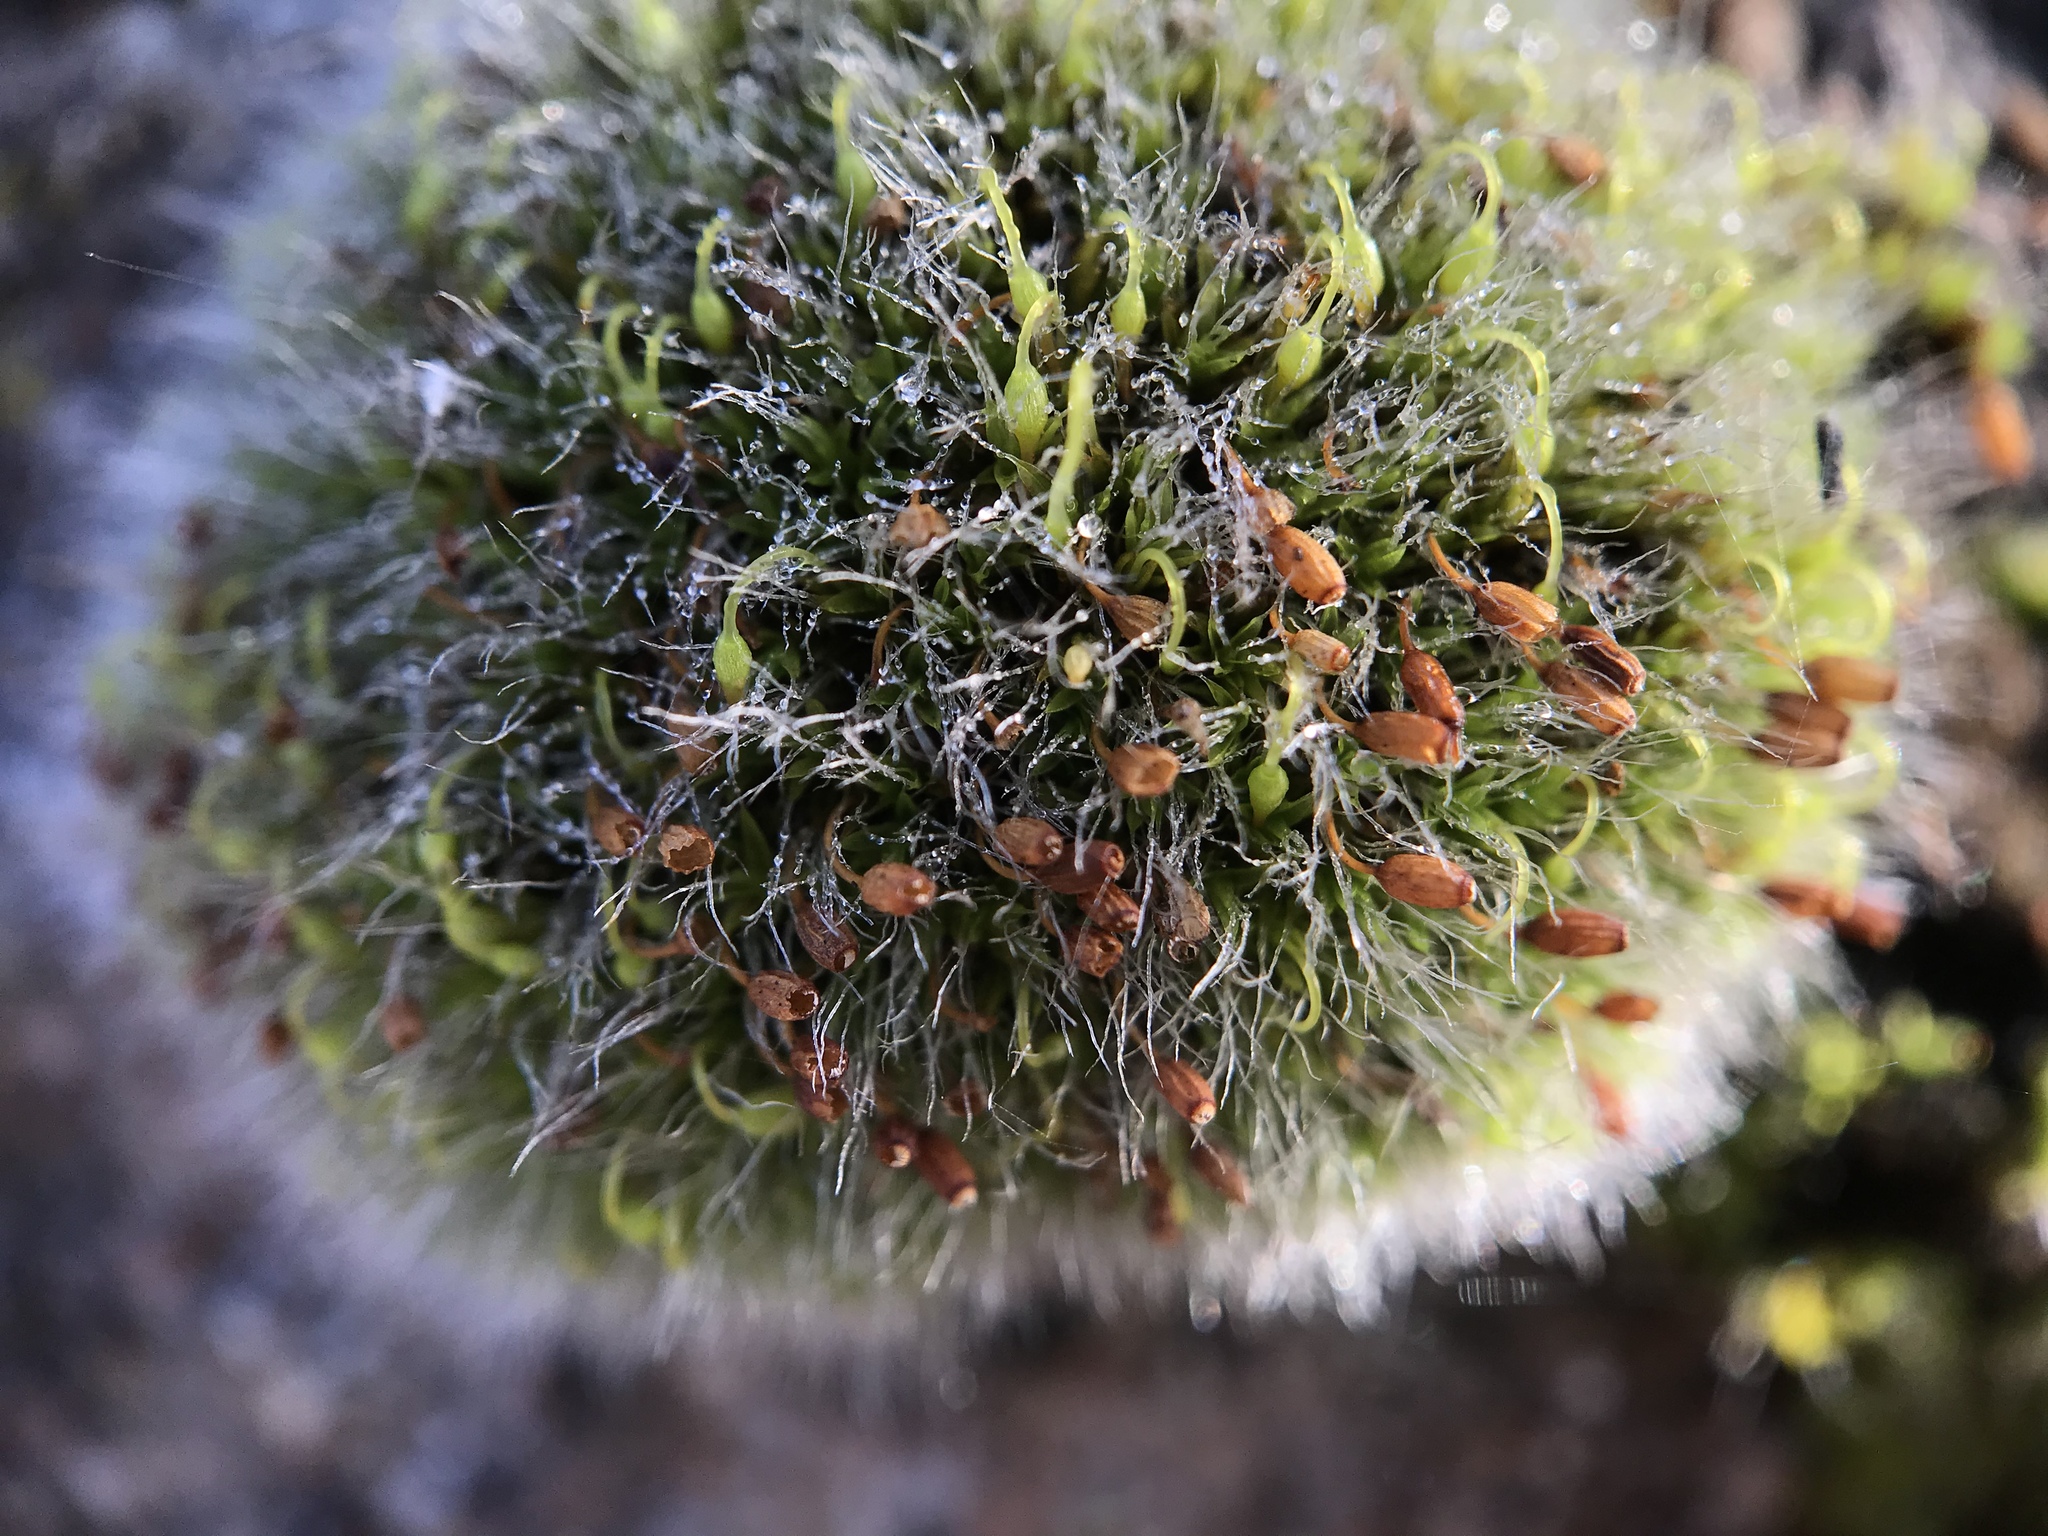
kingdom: Plantae
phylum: Bryophyta
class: Bryopsida
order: Grimmiales
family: Grimmiaceae
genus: Grimmia
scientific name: Grimmia pulvinata
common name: Grey-cushioned grimmia
